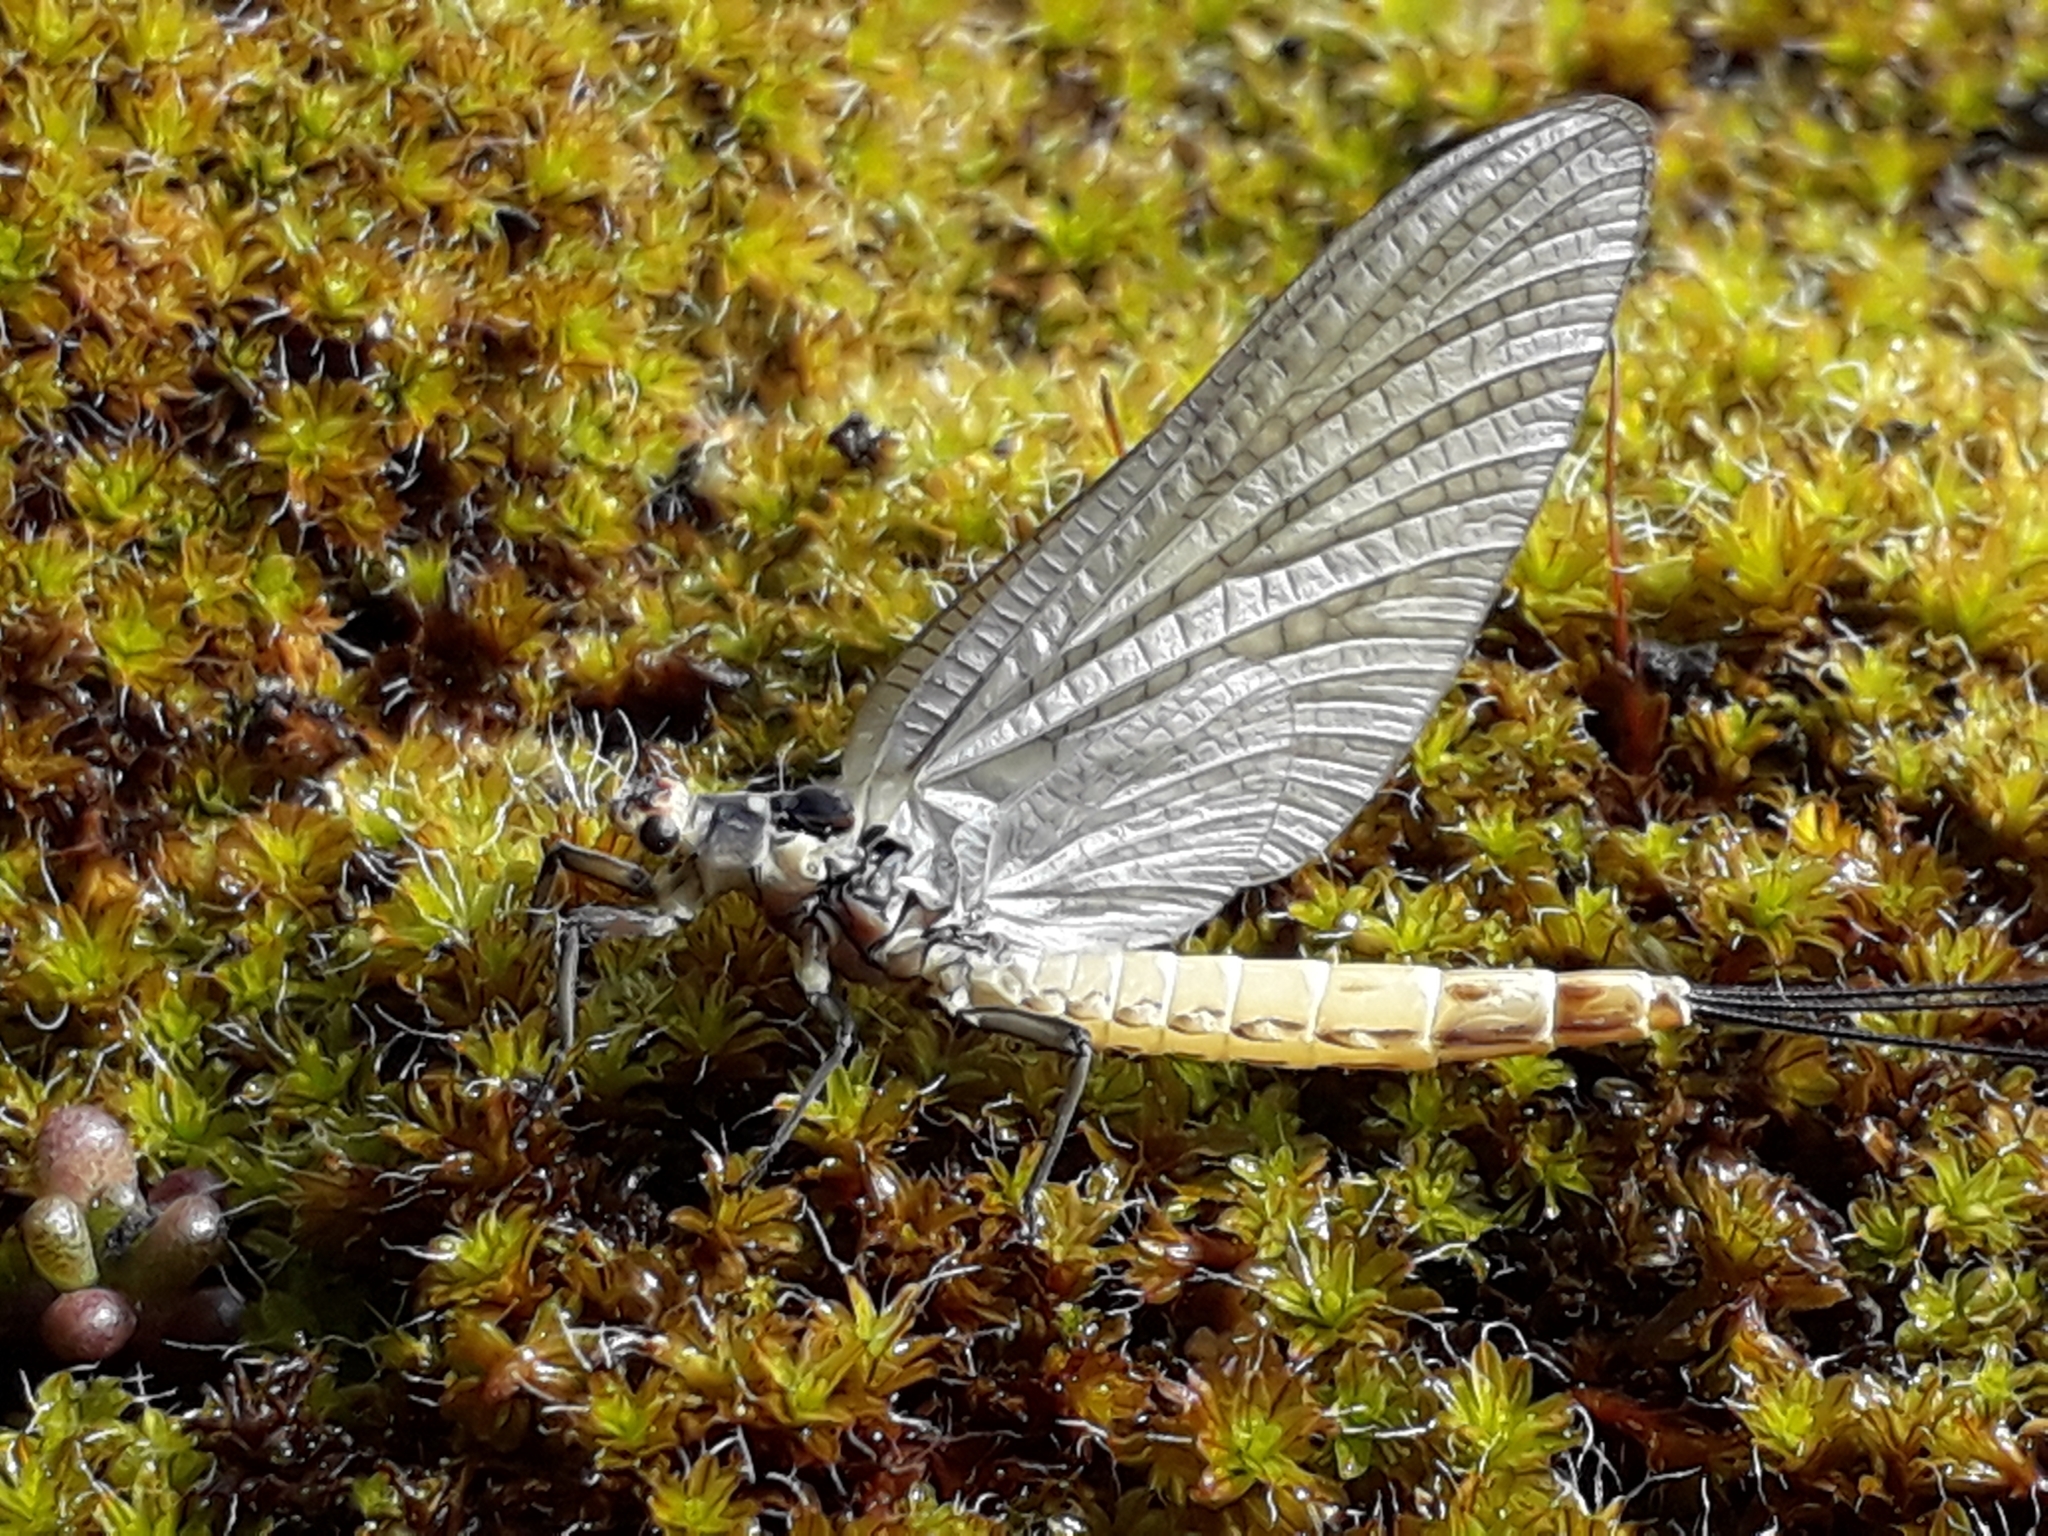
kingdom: Animalia
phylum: Arthropoda
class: Insecta
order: Ephemeroptera
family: Ephemeridae
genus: Ephemera
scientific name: Ephemera danica
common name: Green dun
